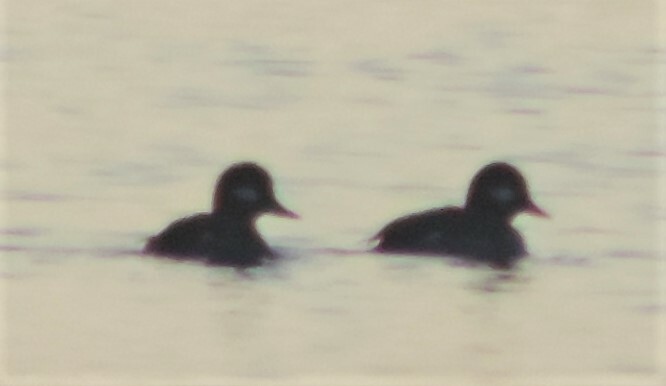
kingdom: Animalia
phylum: Chordata
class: Aves
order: Anseriformes
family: Anatidae
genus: Bucephala
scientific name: Bucephala albeola
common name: Bufflehead
